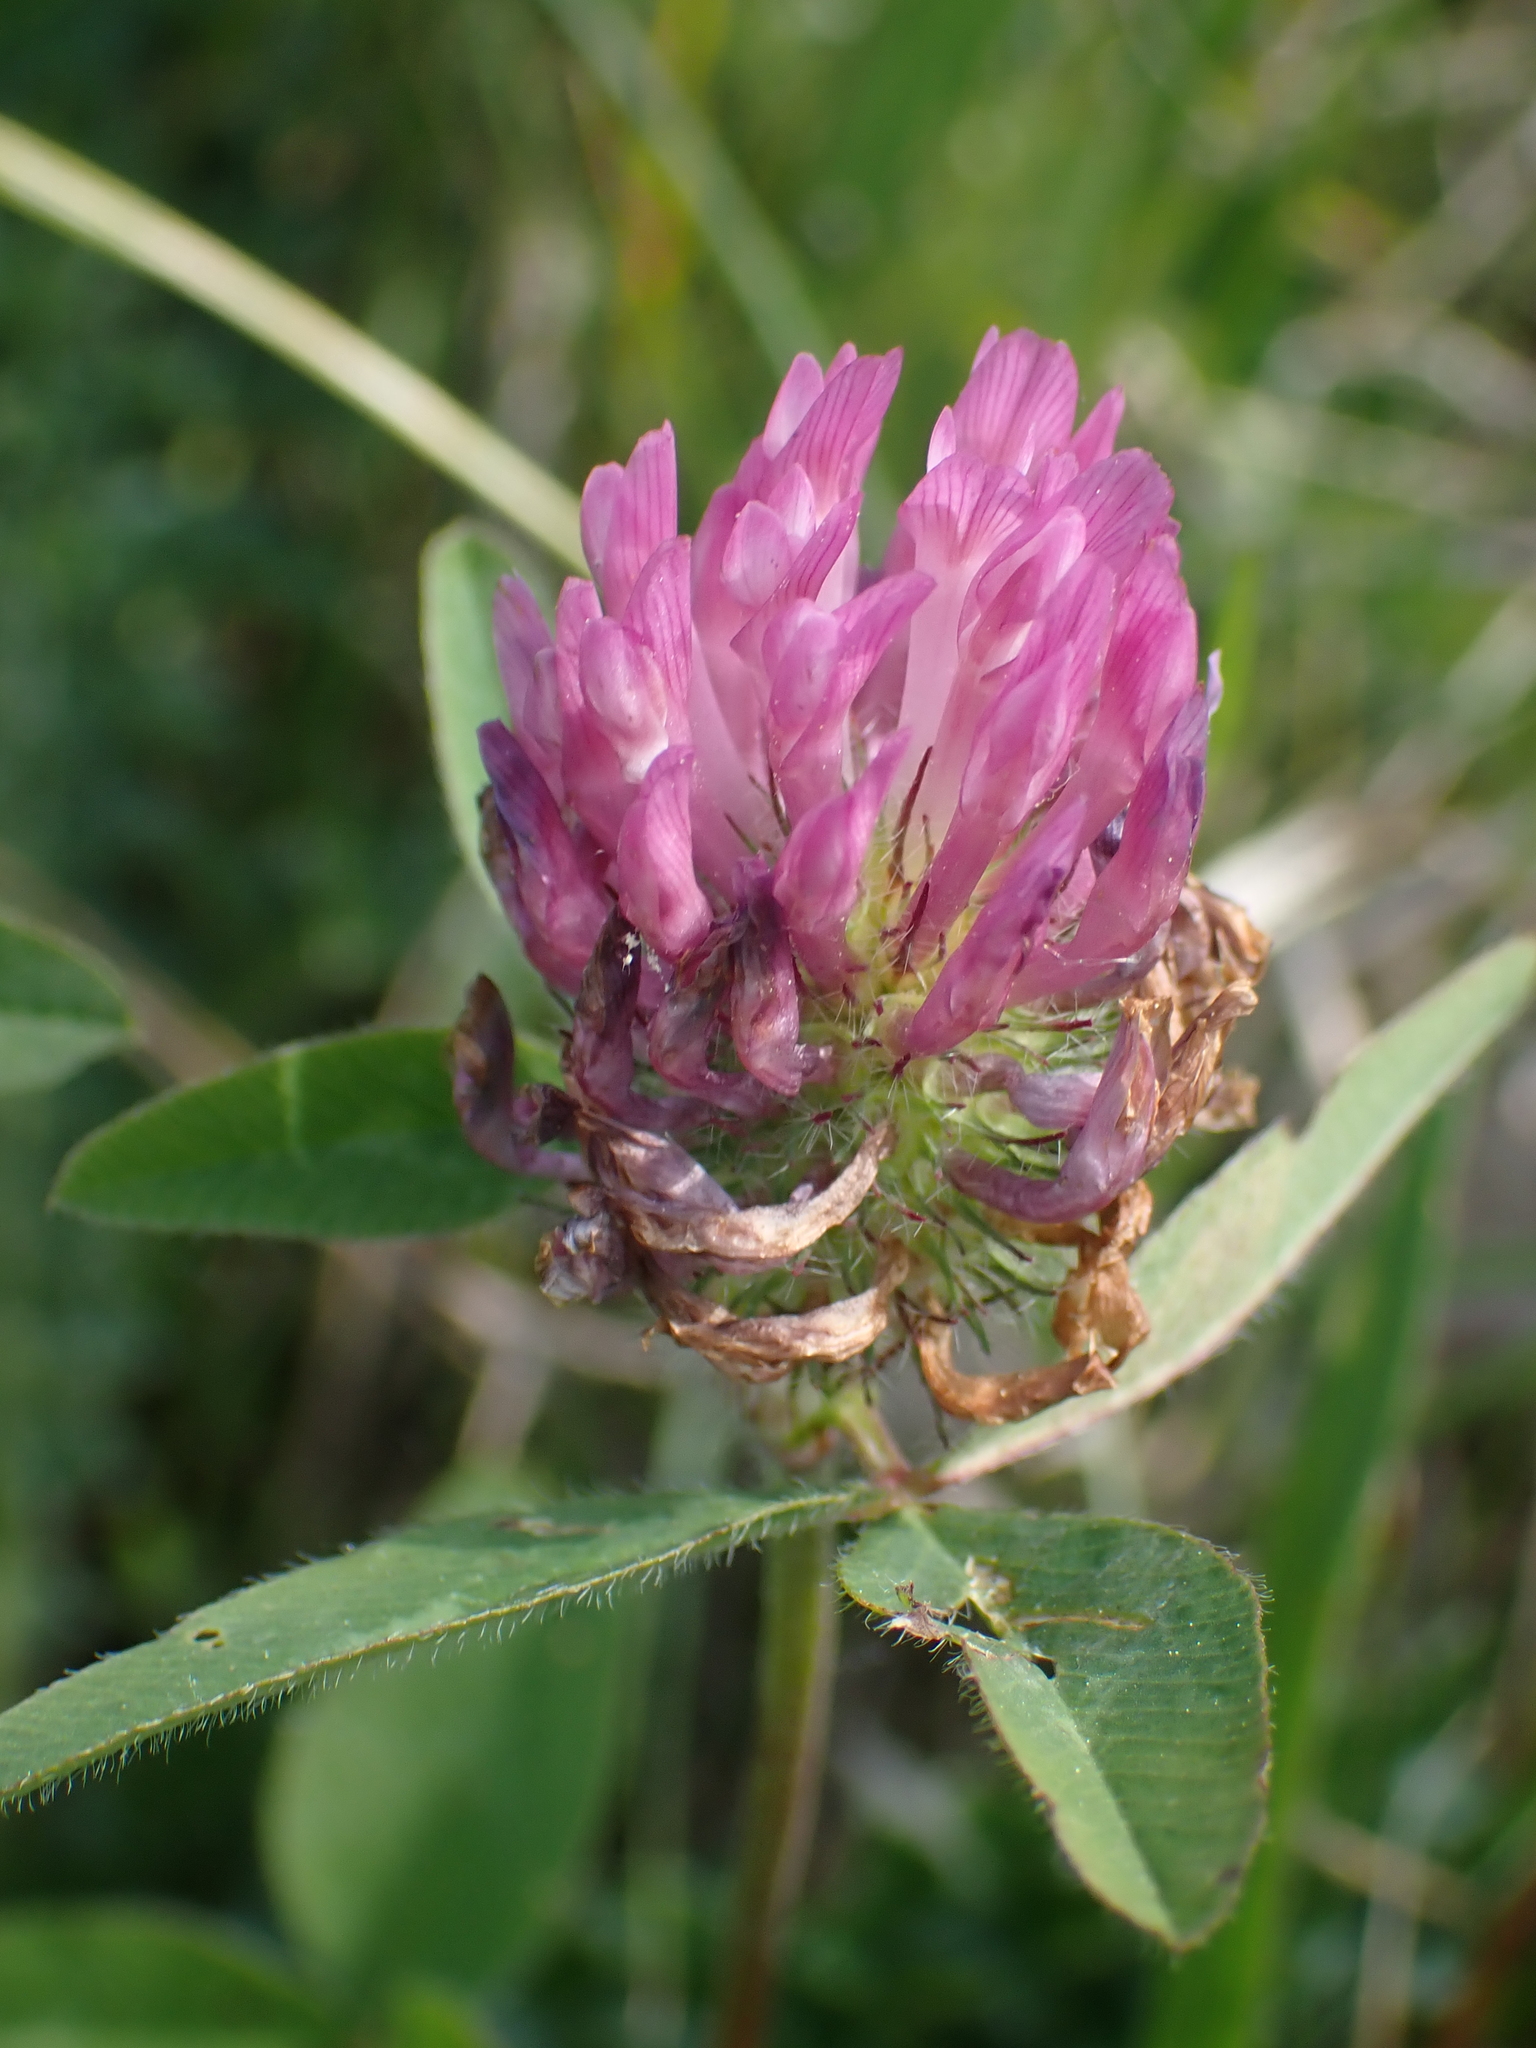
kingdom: Plantae
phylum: Tracheophyta
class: Magnoliopsida
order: Fabales
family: Fabaceae
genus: Trifolium
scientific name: Trifolium pratense
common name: Red clover
